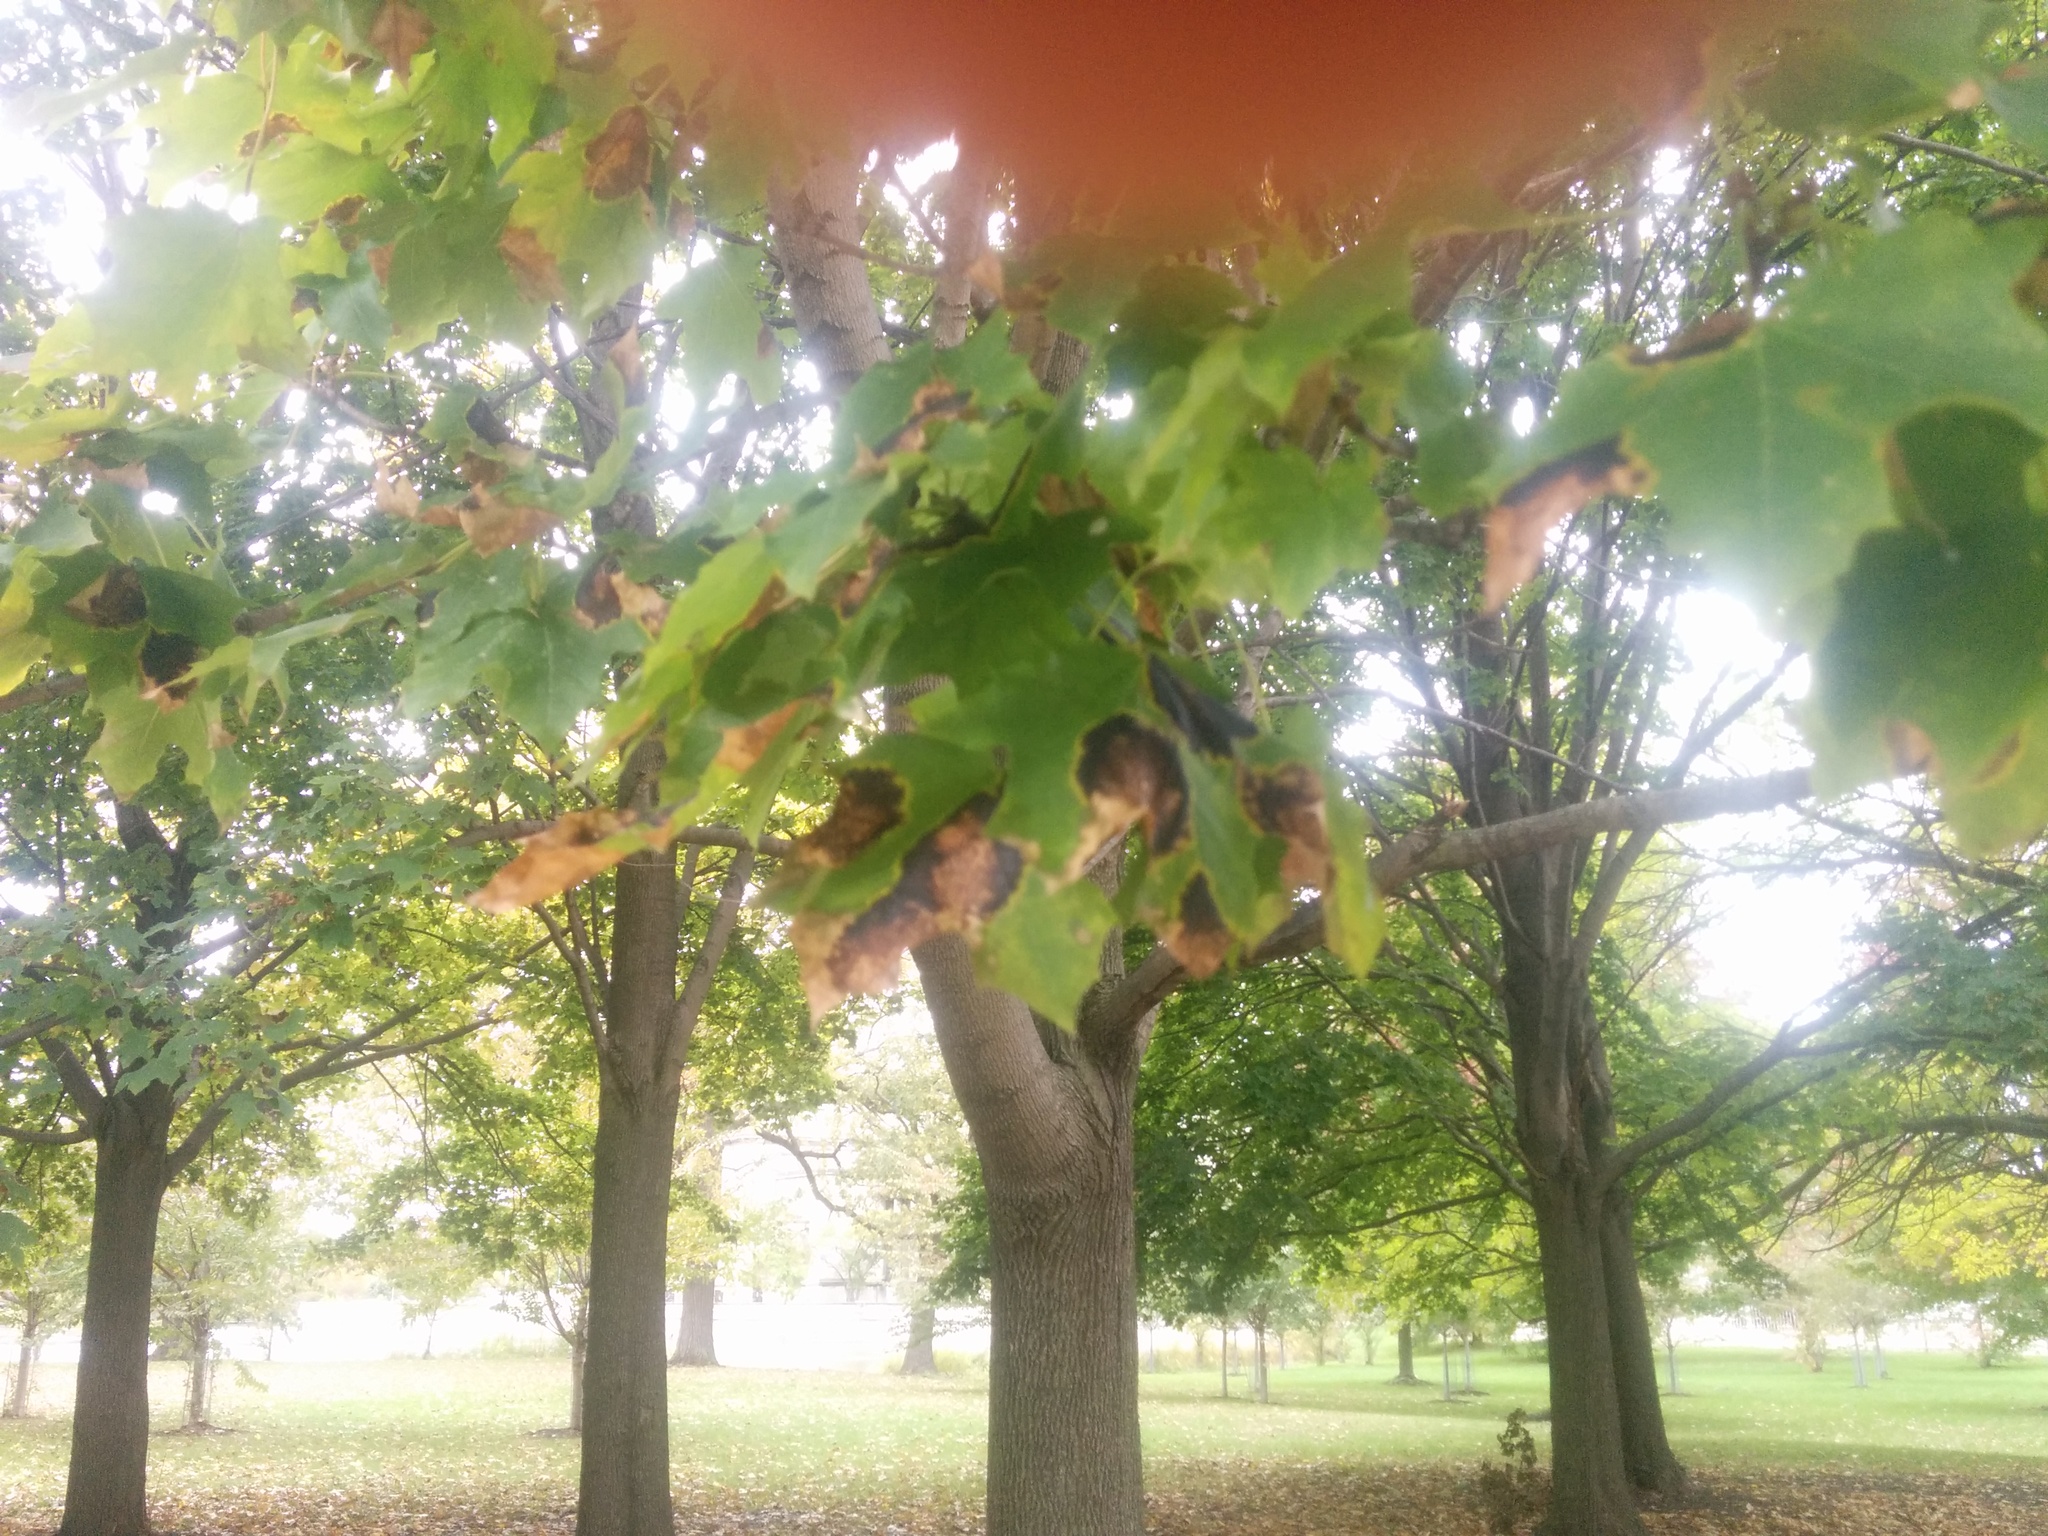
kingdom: Fungi
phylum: Ascomycota
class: Leotiomycetes
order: Rhytismatales
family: Rhytismataceae
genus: Rhytisma
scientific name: Rhytisma acerinum
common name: European tar spot
